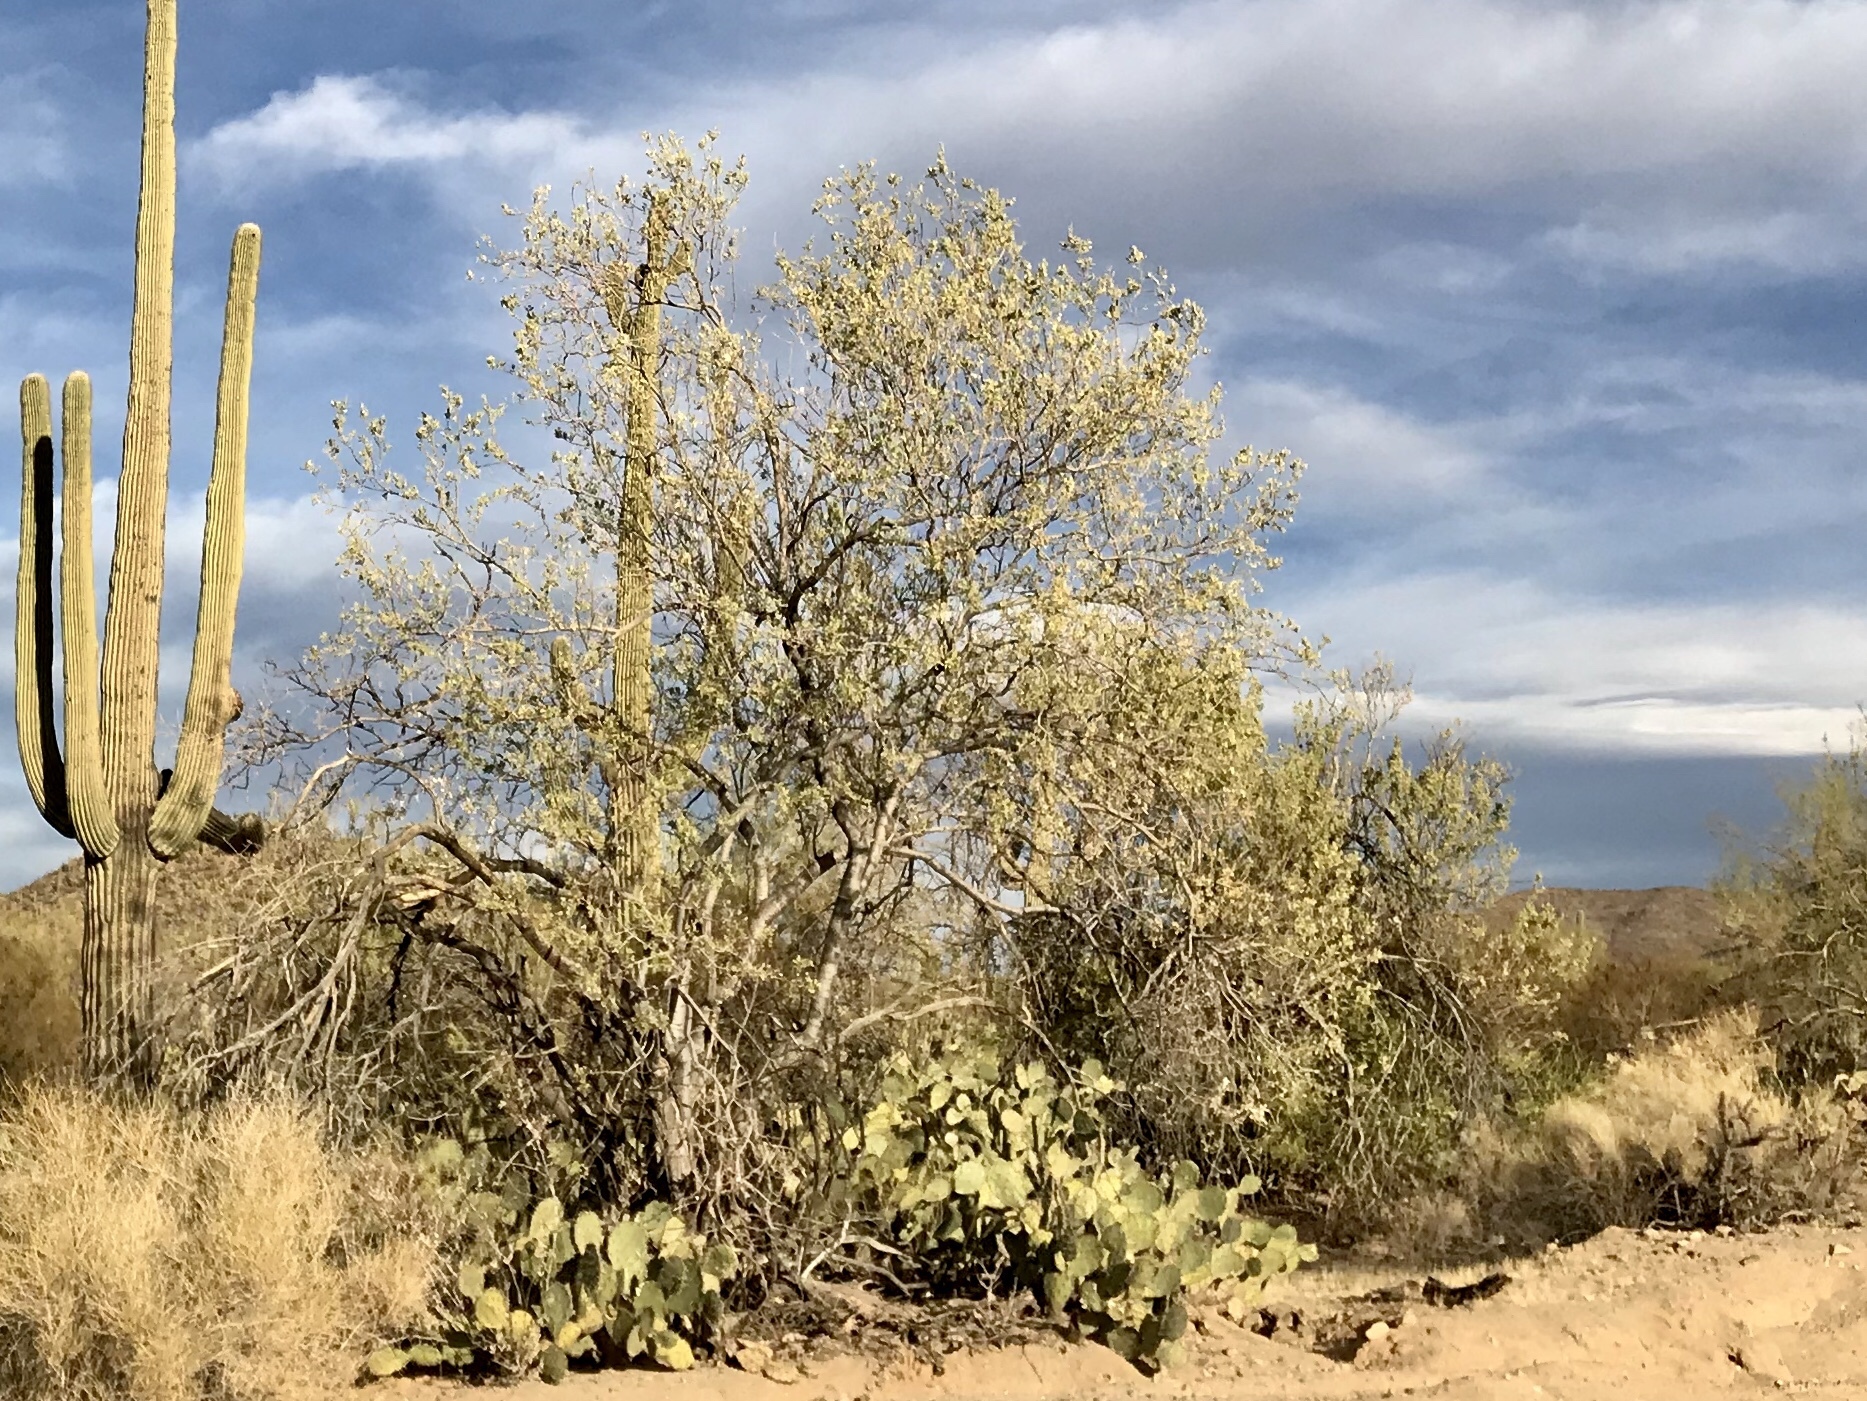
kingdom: Plantae
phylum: Tracheophyta
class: Magnoliopsida
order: Fabales
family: Fabaceae
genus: Olneya
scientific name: Olneya tesota
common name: Desert ironwood
